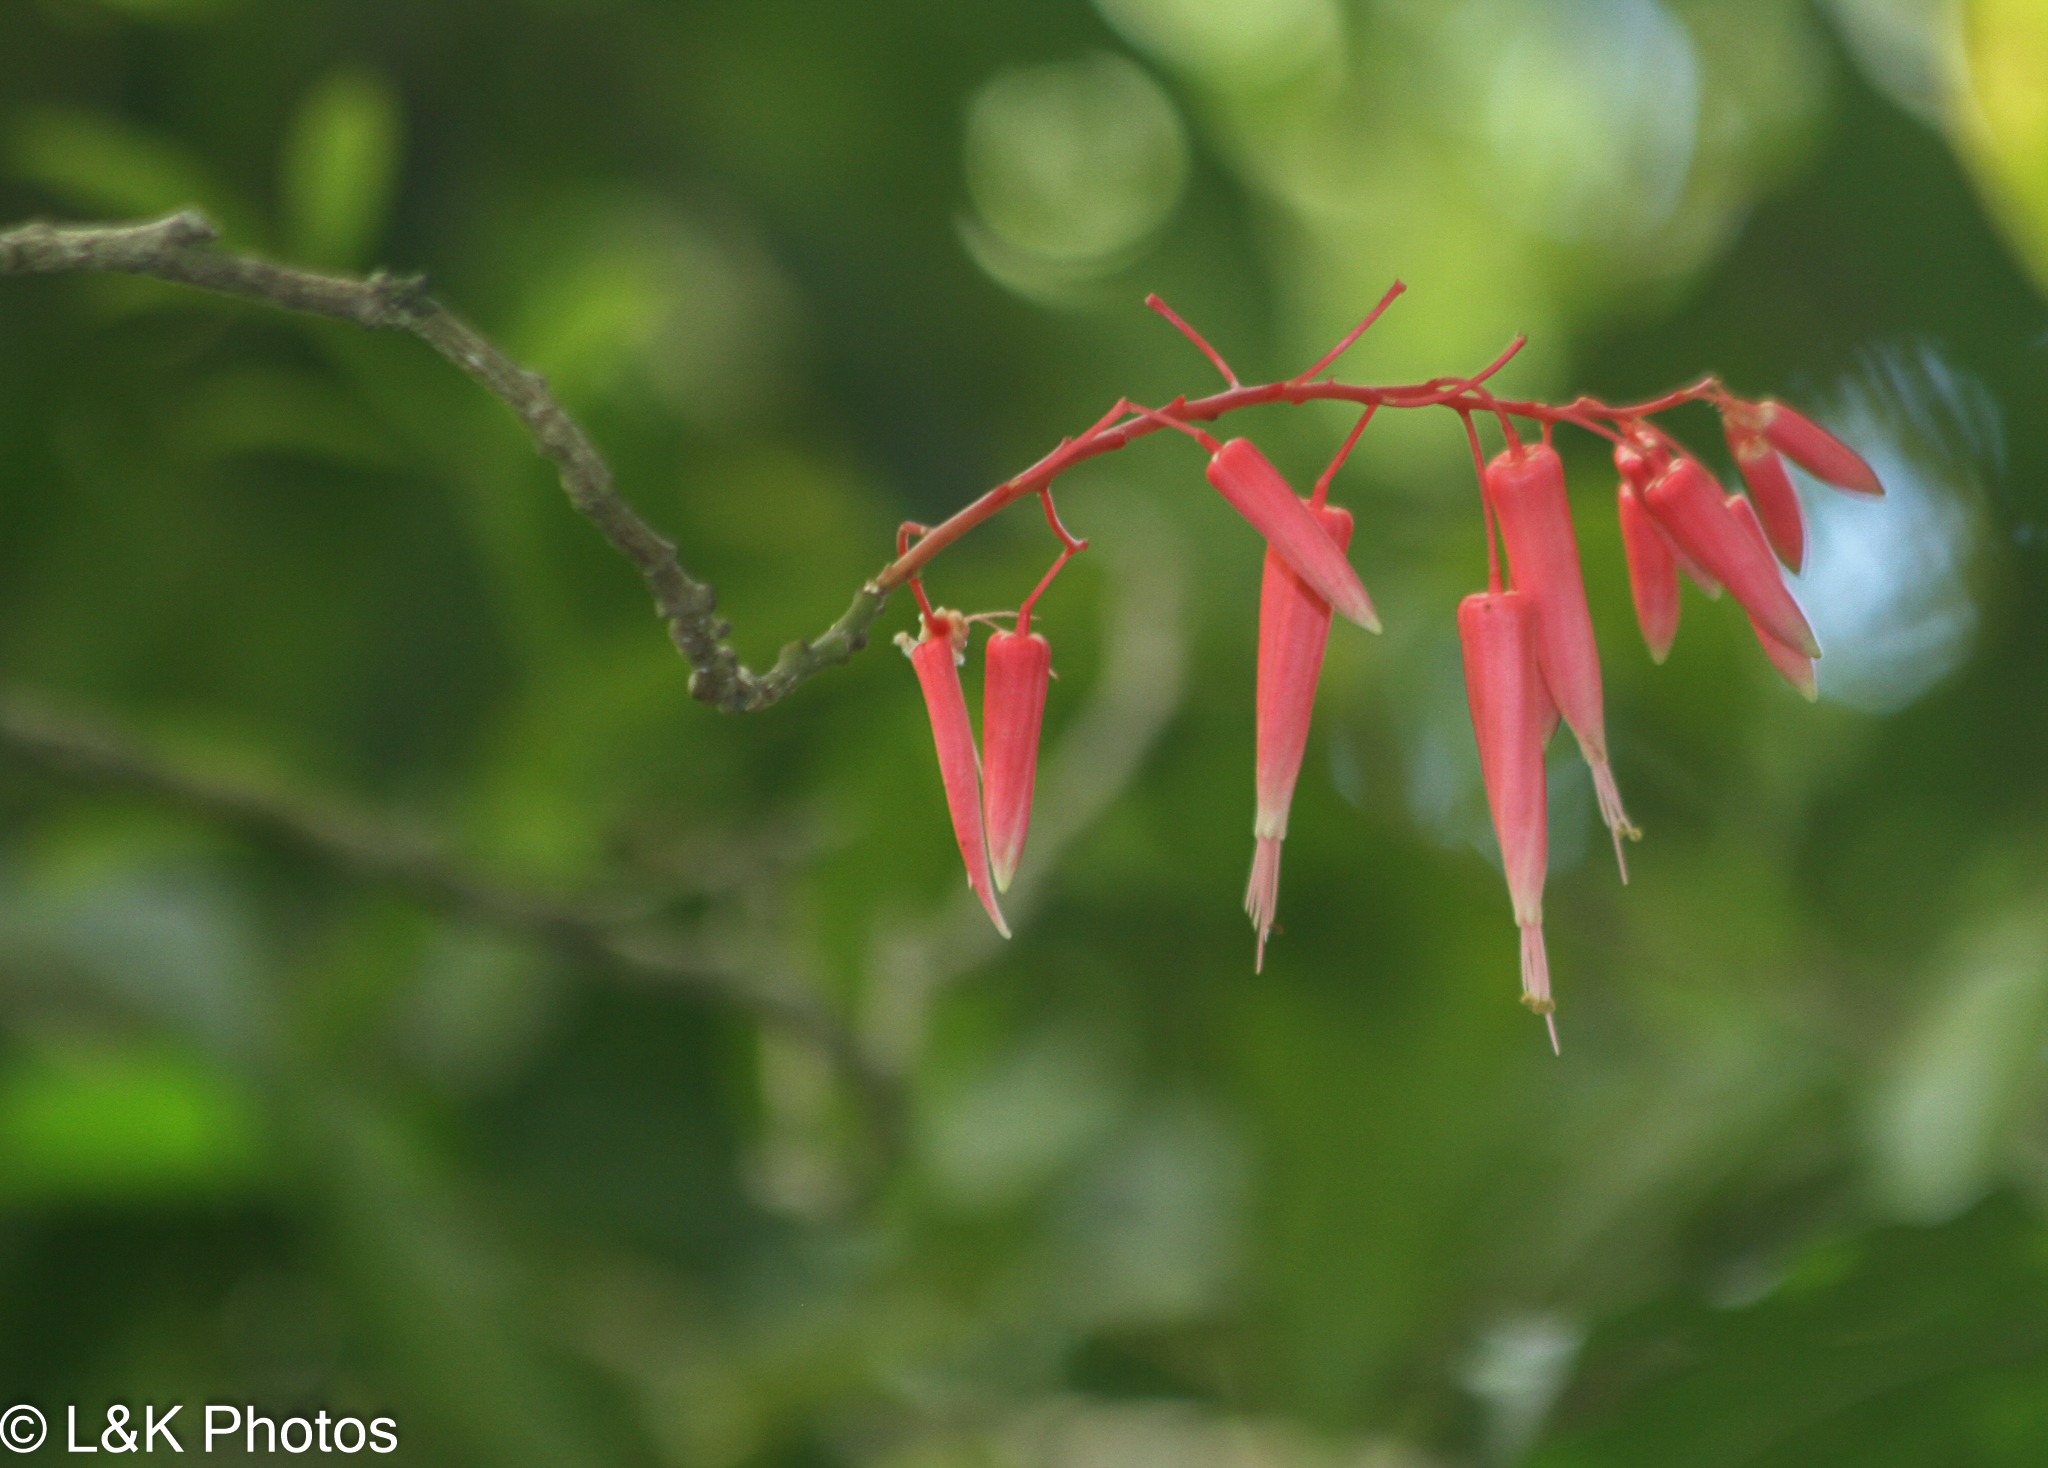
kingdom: Plantae
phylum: Tracheophyta
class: Magnoliopsida
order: Sapindales
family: Simaroubaceae
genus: Quassia
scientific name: Quassia amara
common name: Quassia
